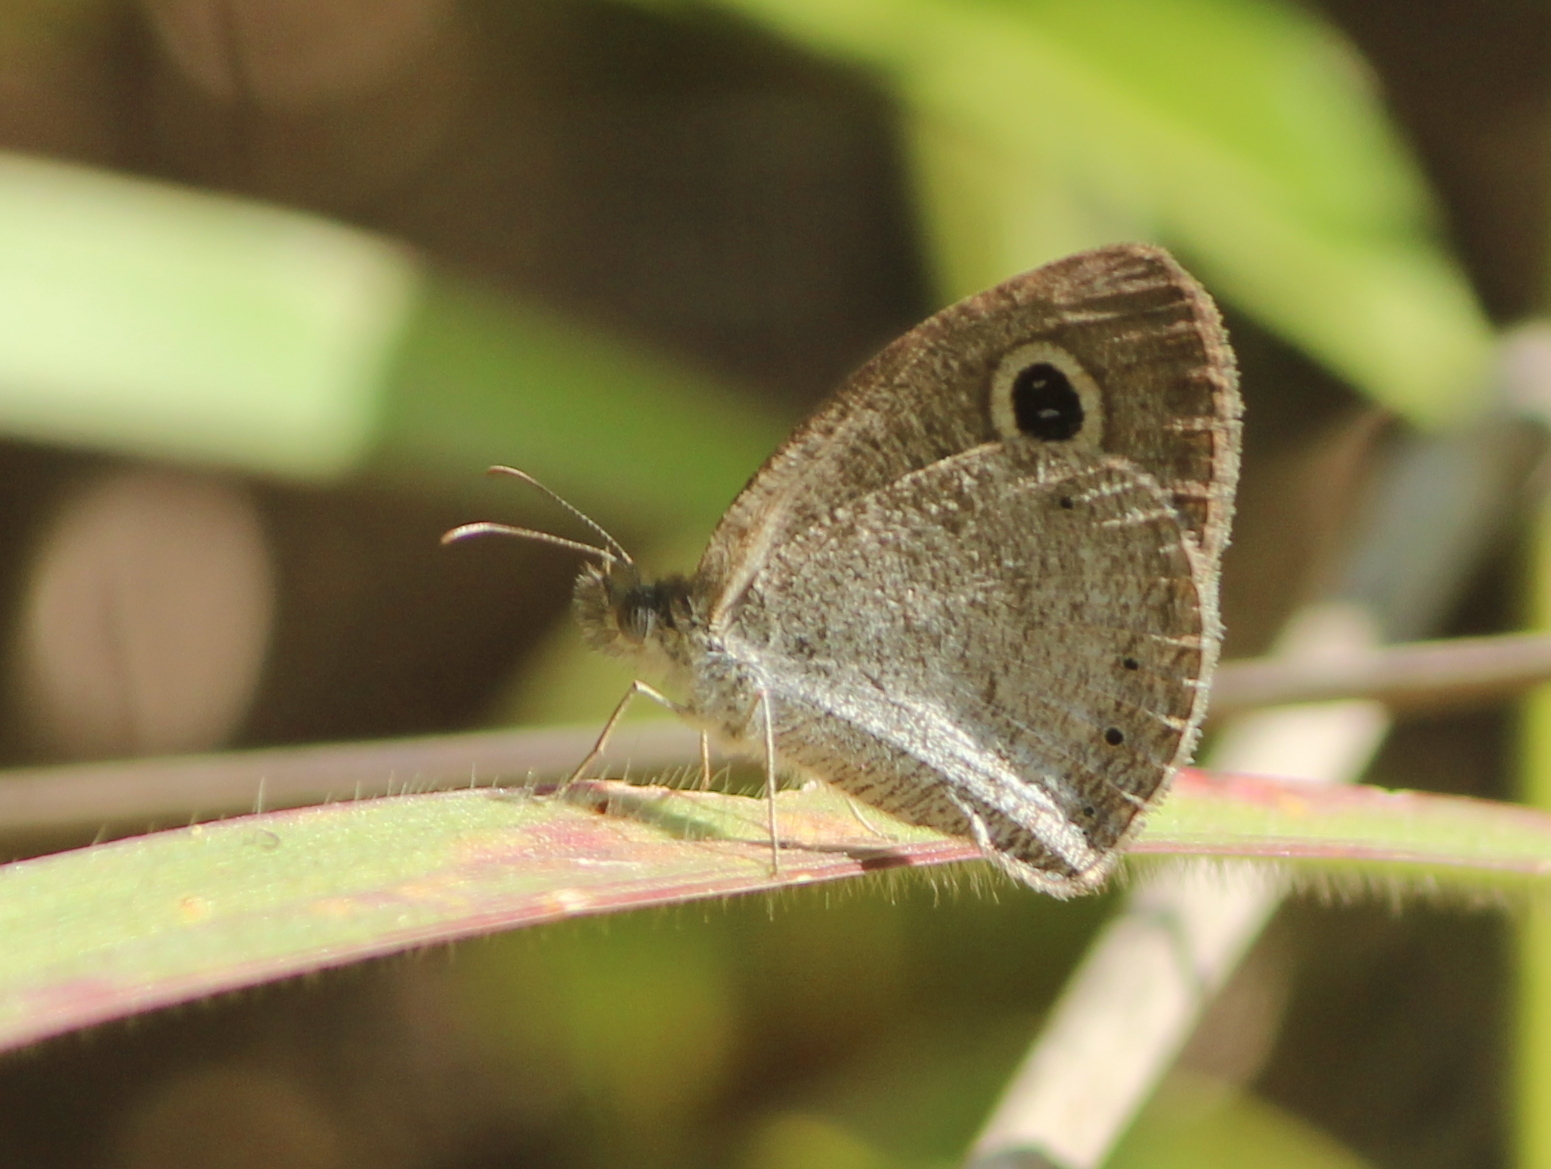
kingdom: Animalia
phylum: Arthropoda
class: Insecta
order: Lepidoptera
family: Nymphalidae
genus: Ypthima
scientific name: Ypthima huebneri
